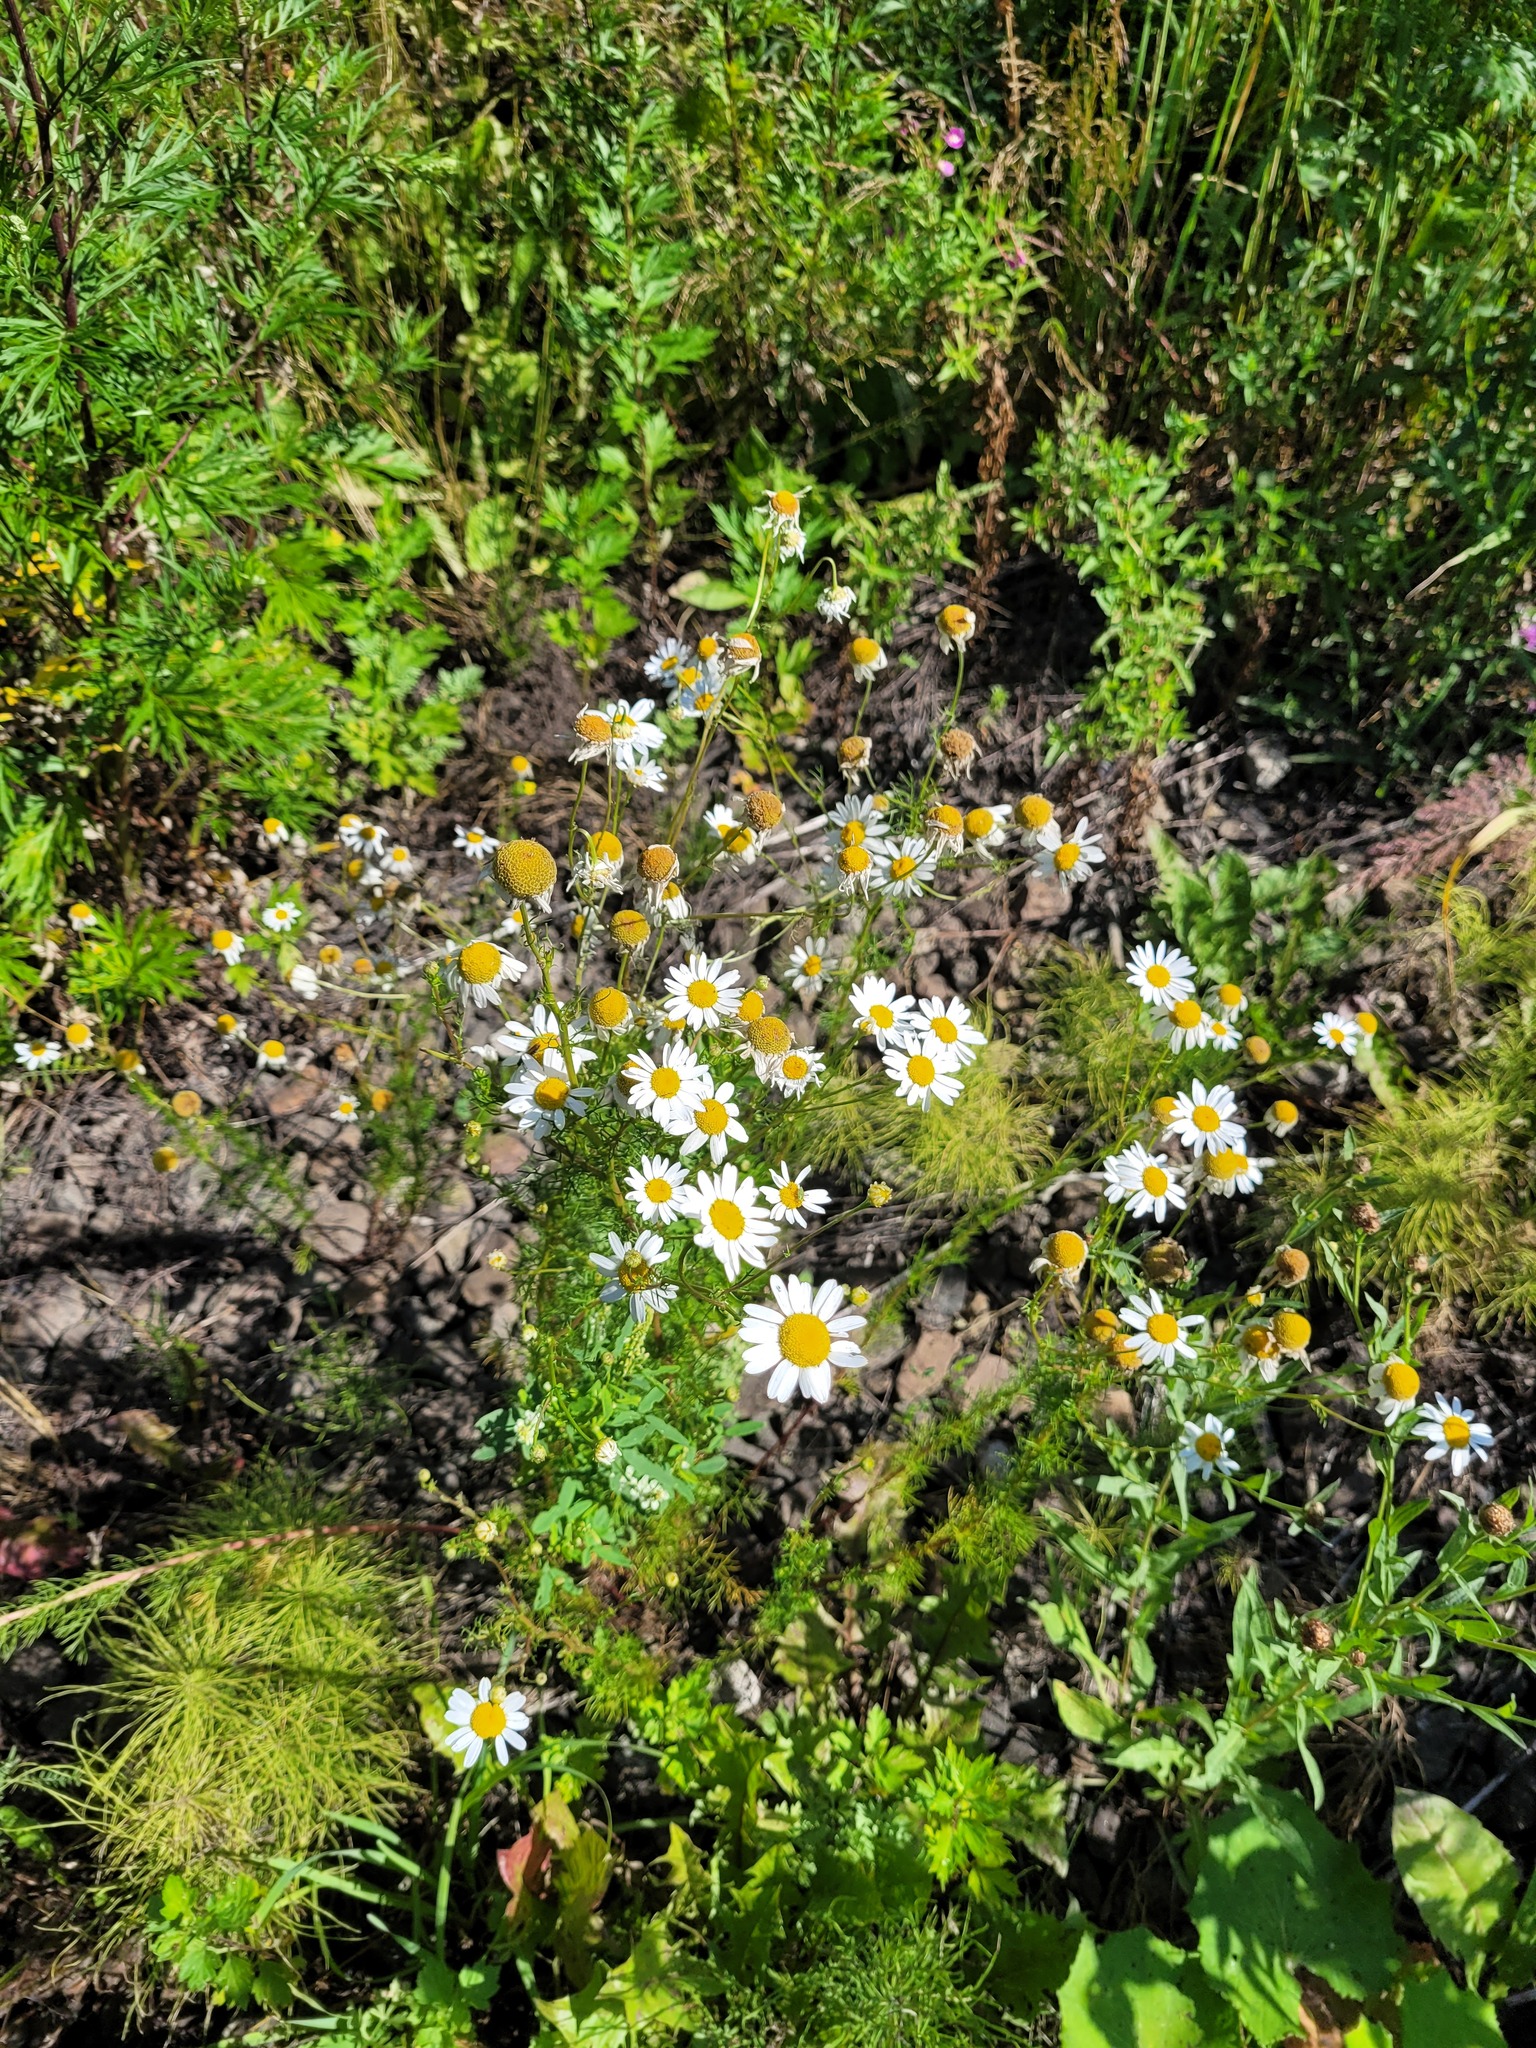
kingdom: Plantae
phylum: Tracheophyta
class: Magnoliopsida
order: Asterales
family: Asteraceae
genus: Tripleurospermum
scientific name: Tripleurospermum inodorum
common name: Scentless mayweed
